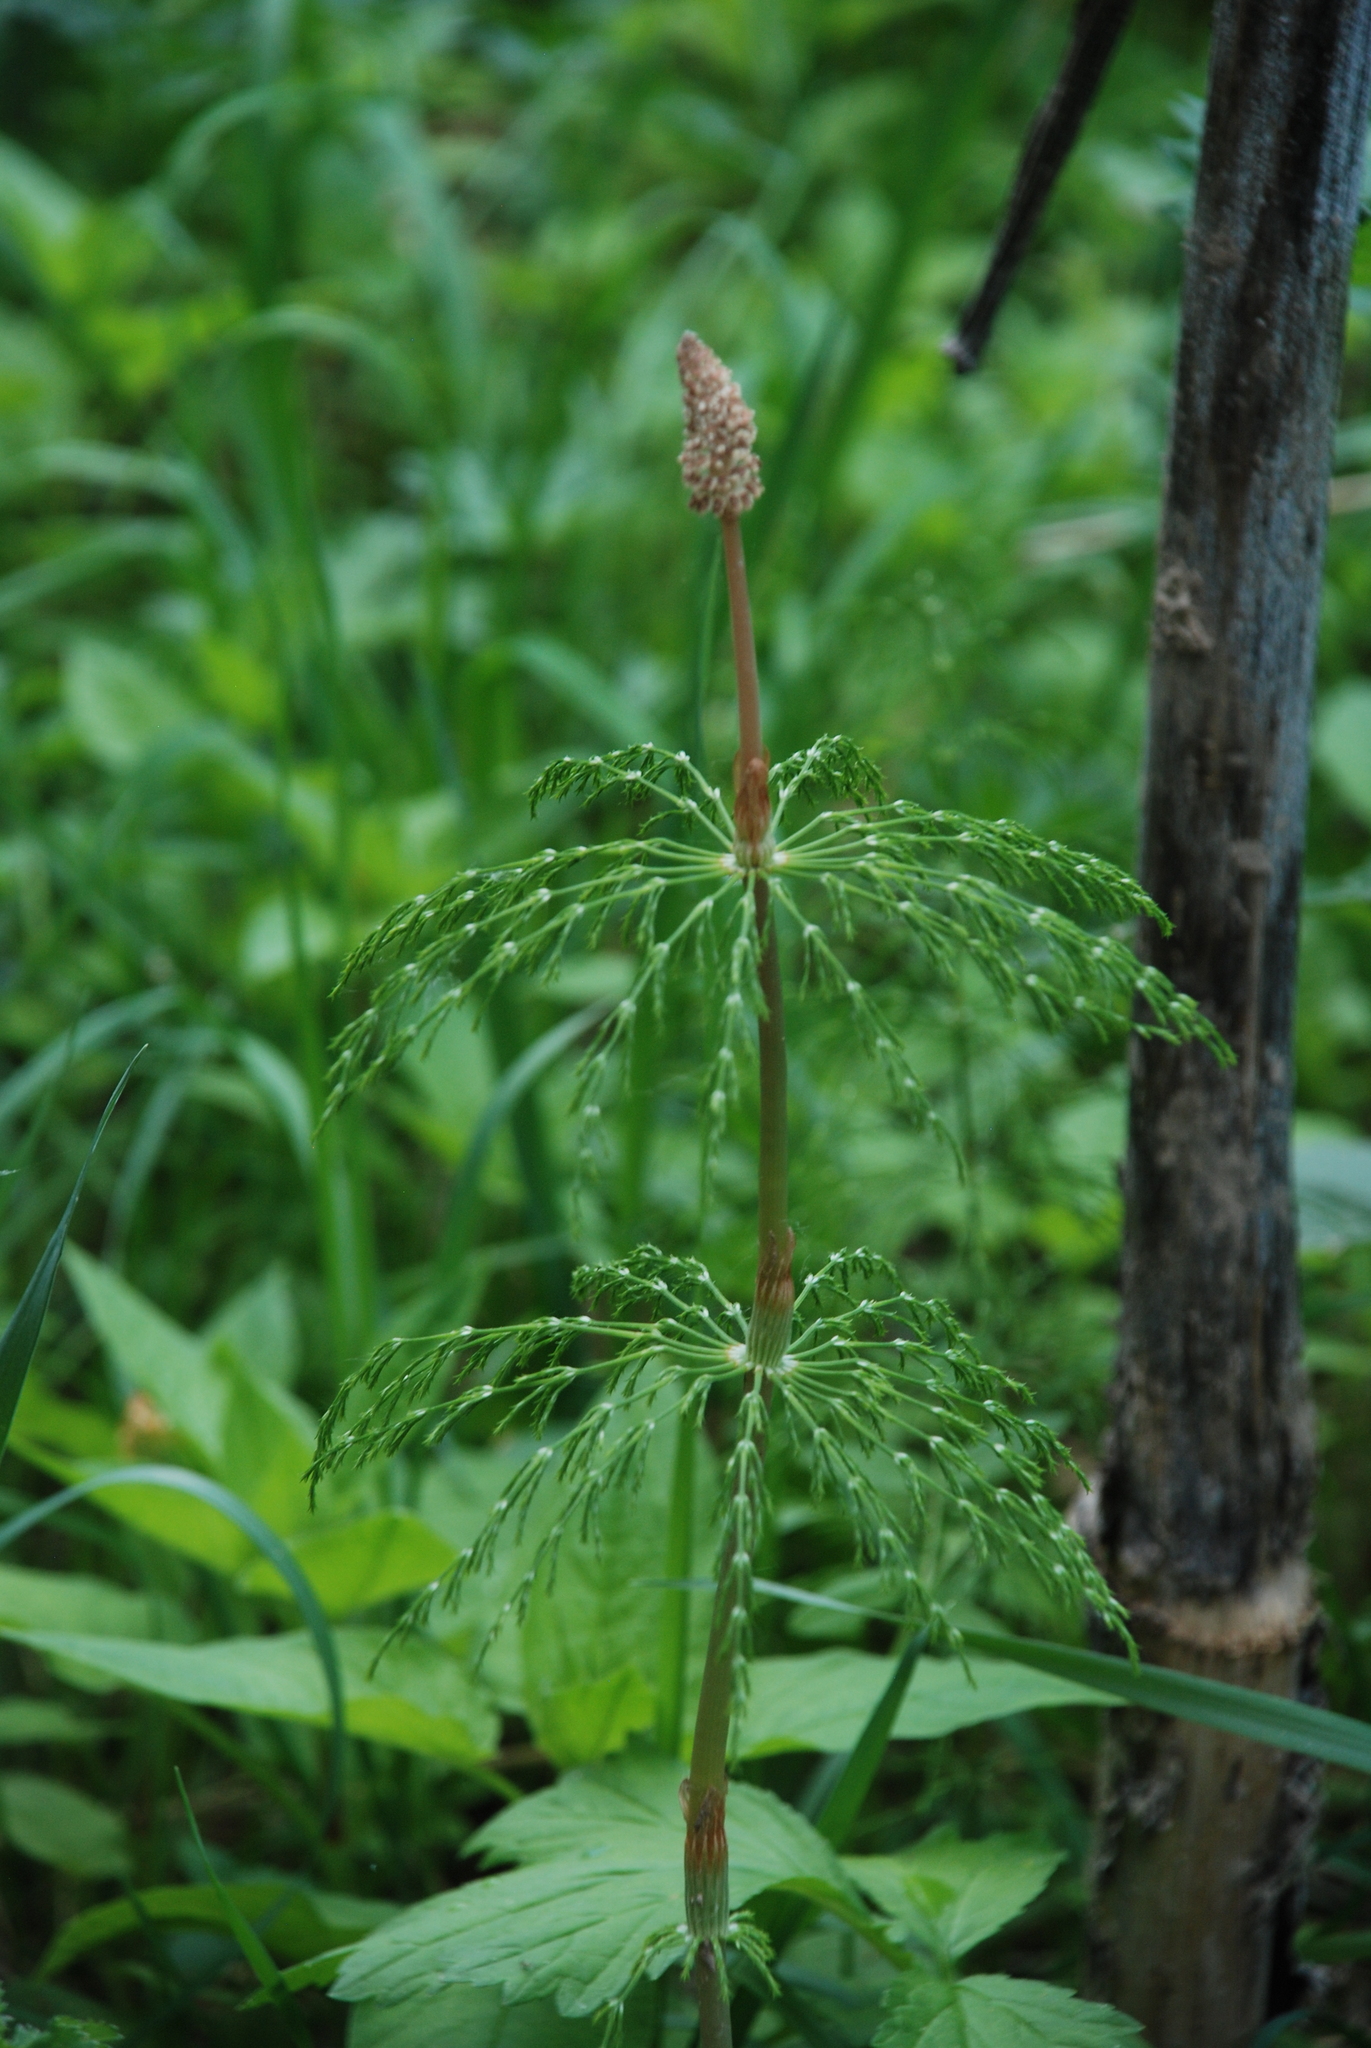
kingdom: Plantae
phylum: Tracheophyta
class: Polypodiopsida
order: Equisetales
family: Equisetaceae
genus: Equisetum
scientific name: Equisetum sylvaticum
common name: Wood horsetail
